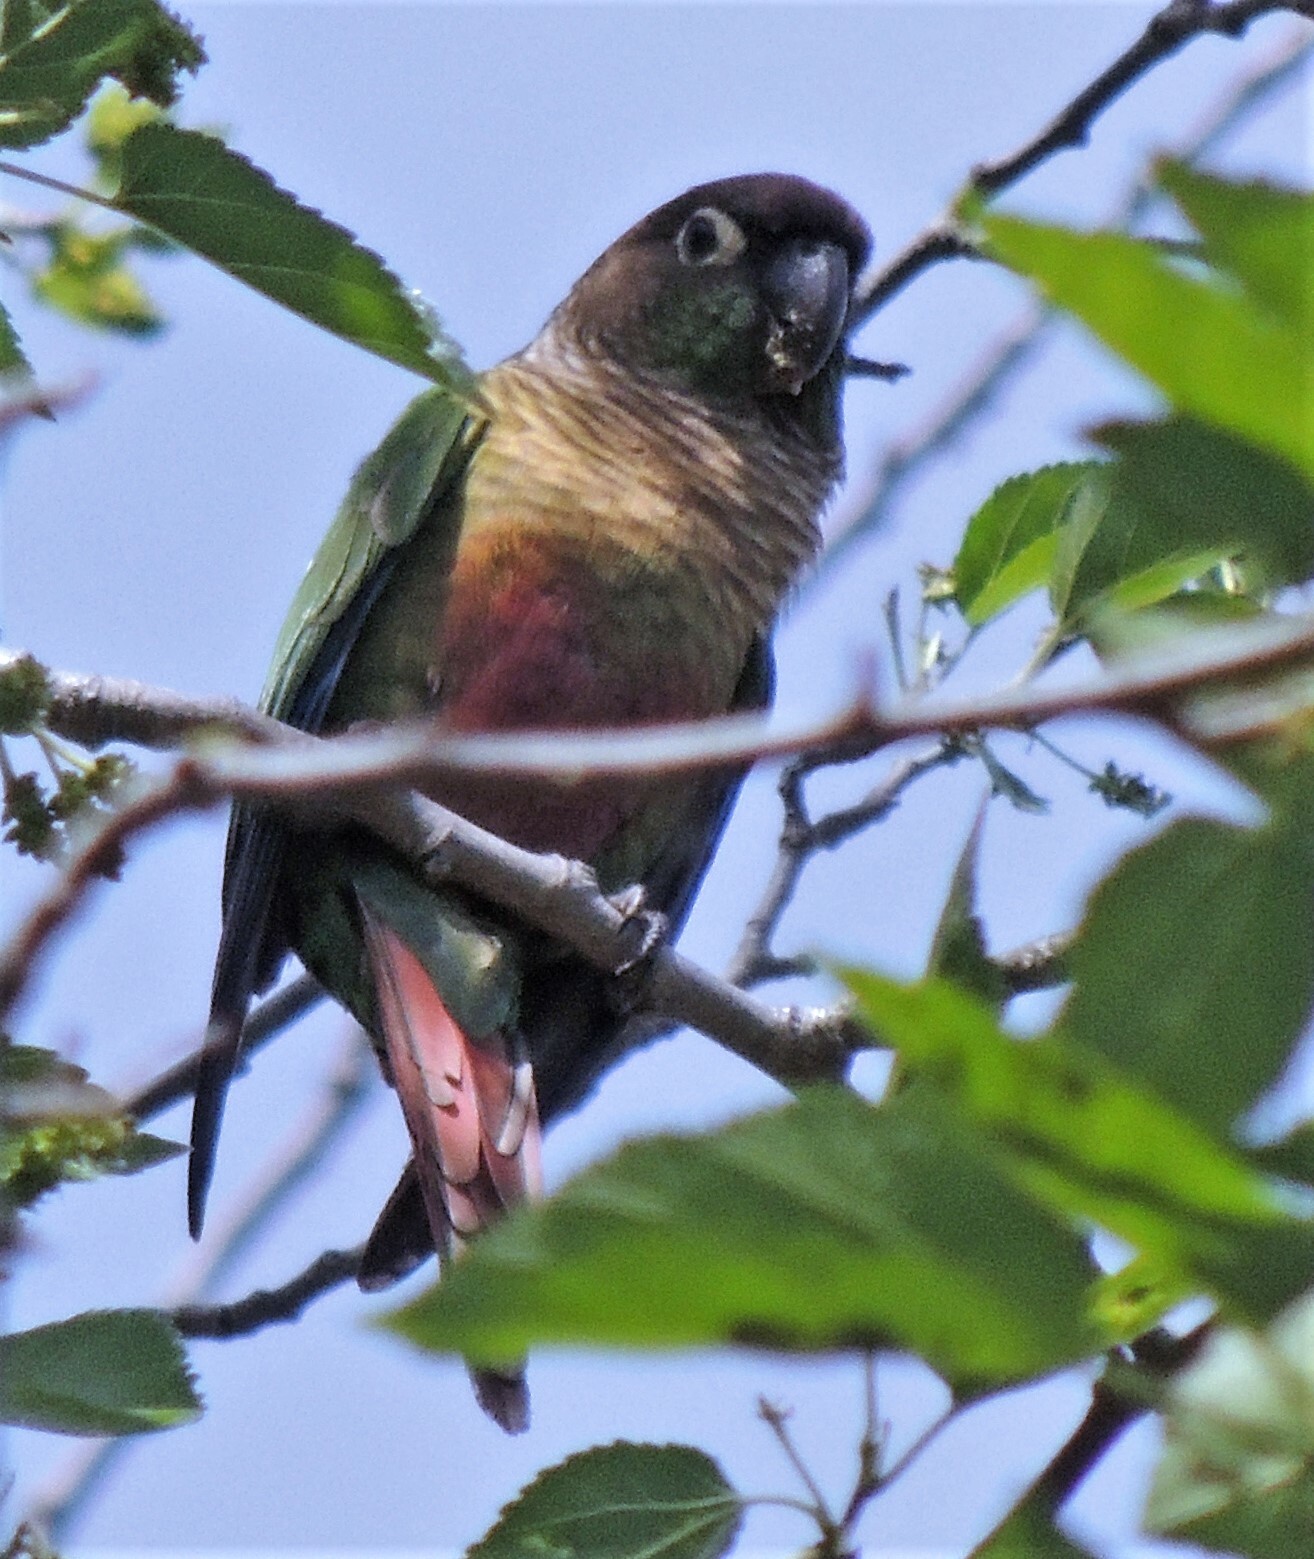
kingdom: Animalia
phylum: Chordata
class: Aves
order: Psittaciformes
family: Psittacidae
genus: Pyrrhura
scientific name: Pyrrhura molinae
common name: Green-cheeked parakeet
